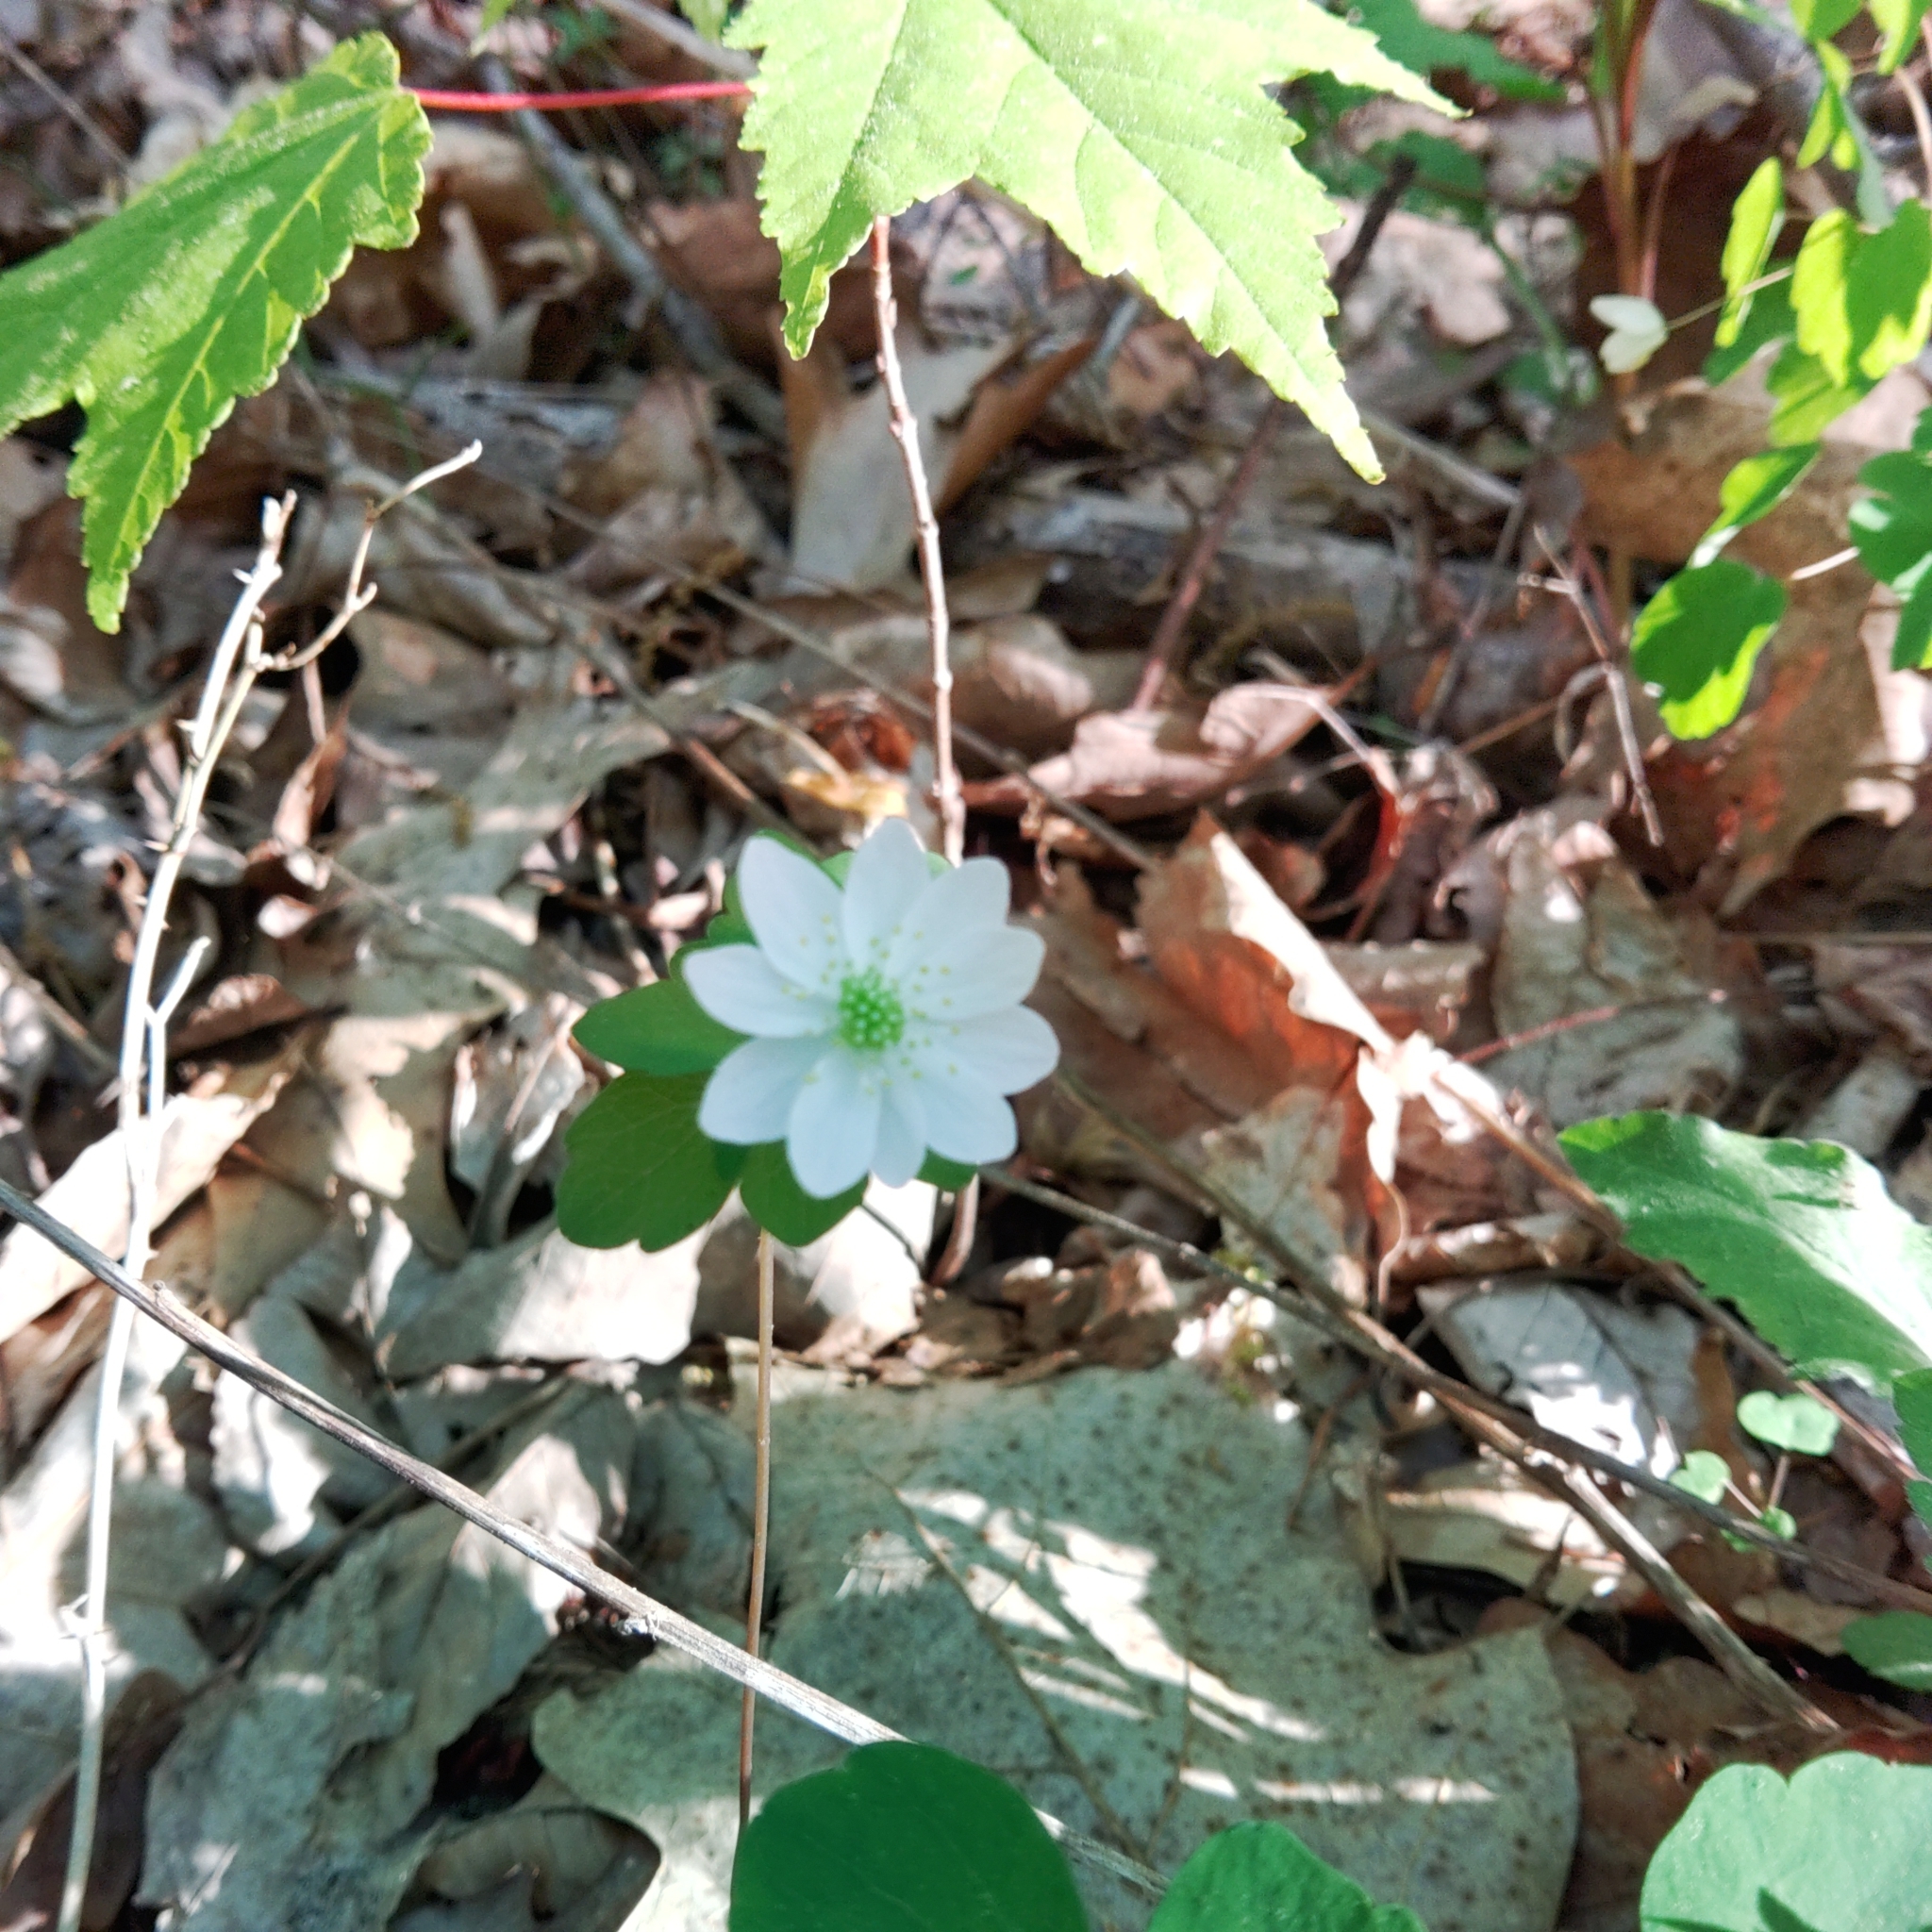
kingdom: Plantae
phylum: Tracheophyta
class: Magnoliopsida
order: Ranunculales
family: Ranunculaceae
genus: Thalictrum
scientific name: Thalictrum thalictroides
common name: Rue-anemone
